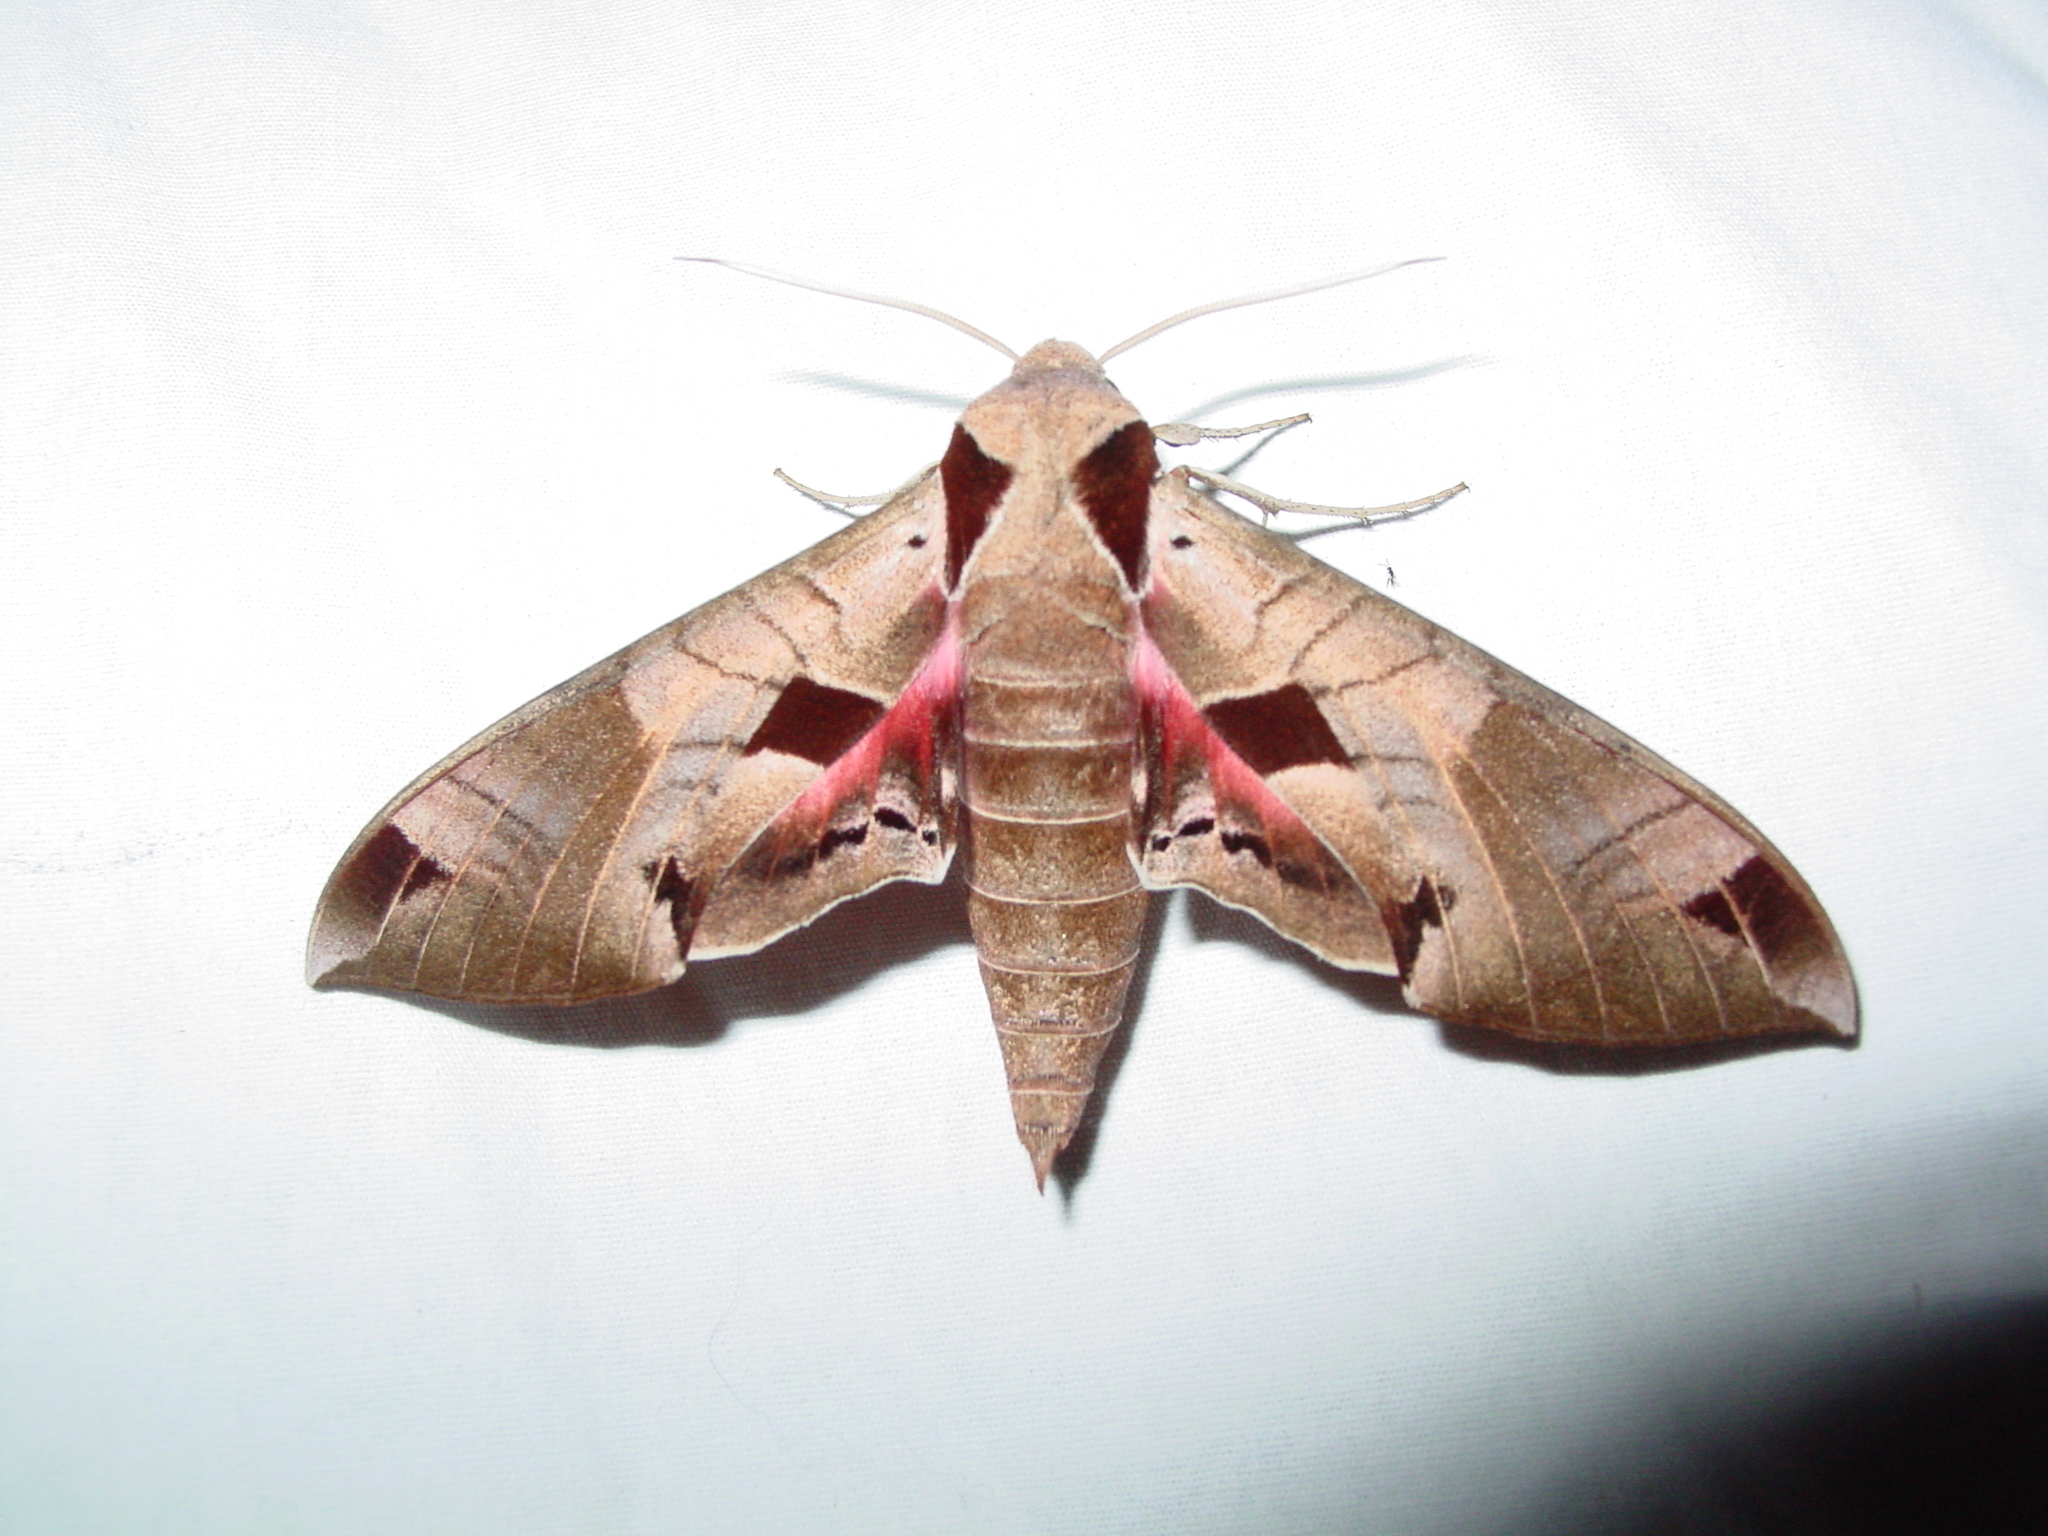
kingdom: Animalia
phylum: Arthropoda
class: Insecta
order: Lepidoptera
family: Sphingidae
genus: Eumorpha
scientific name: Eumorpha achemon
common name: Achemon sphinx
